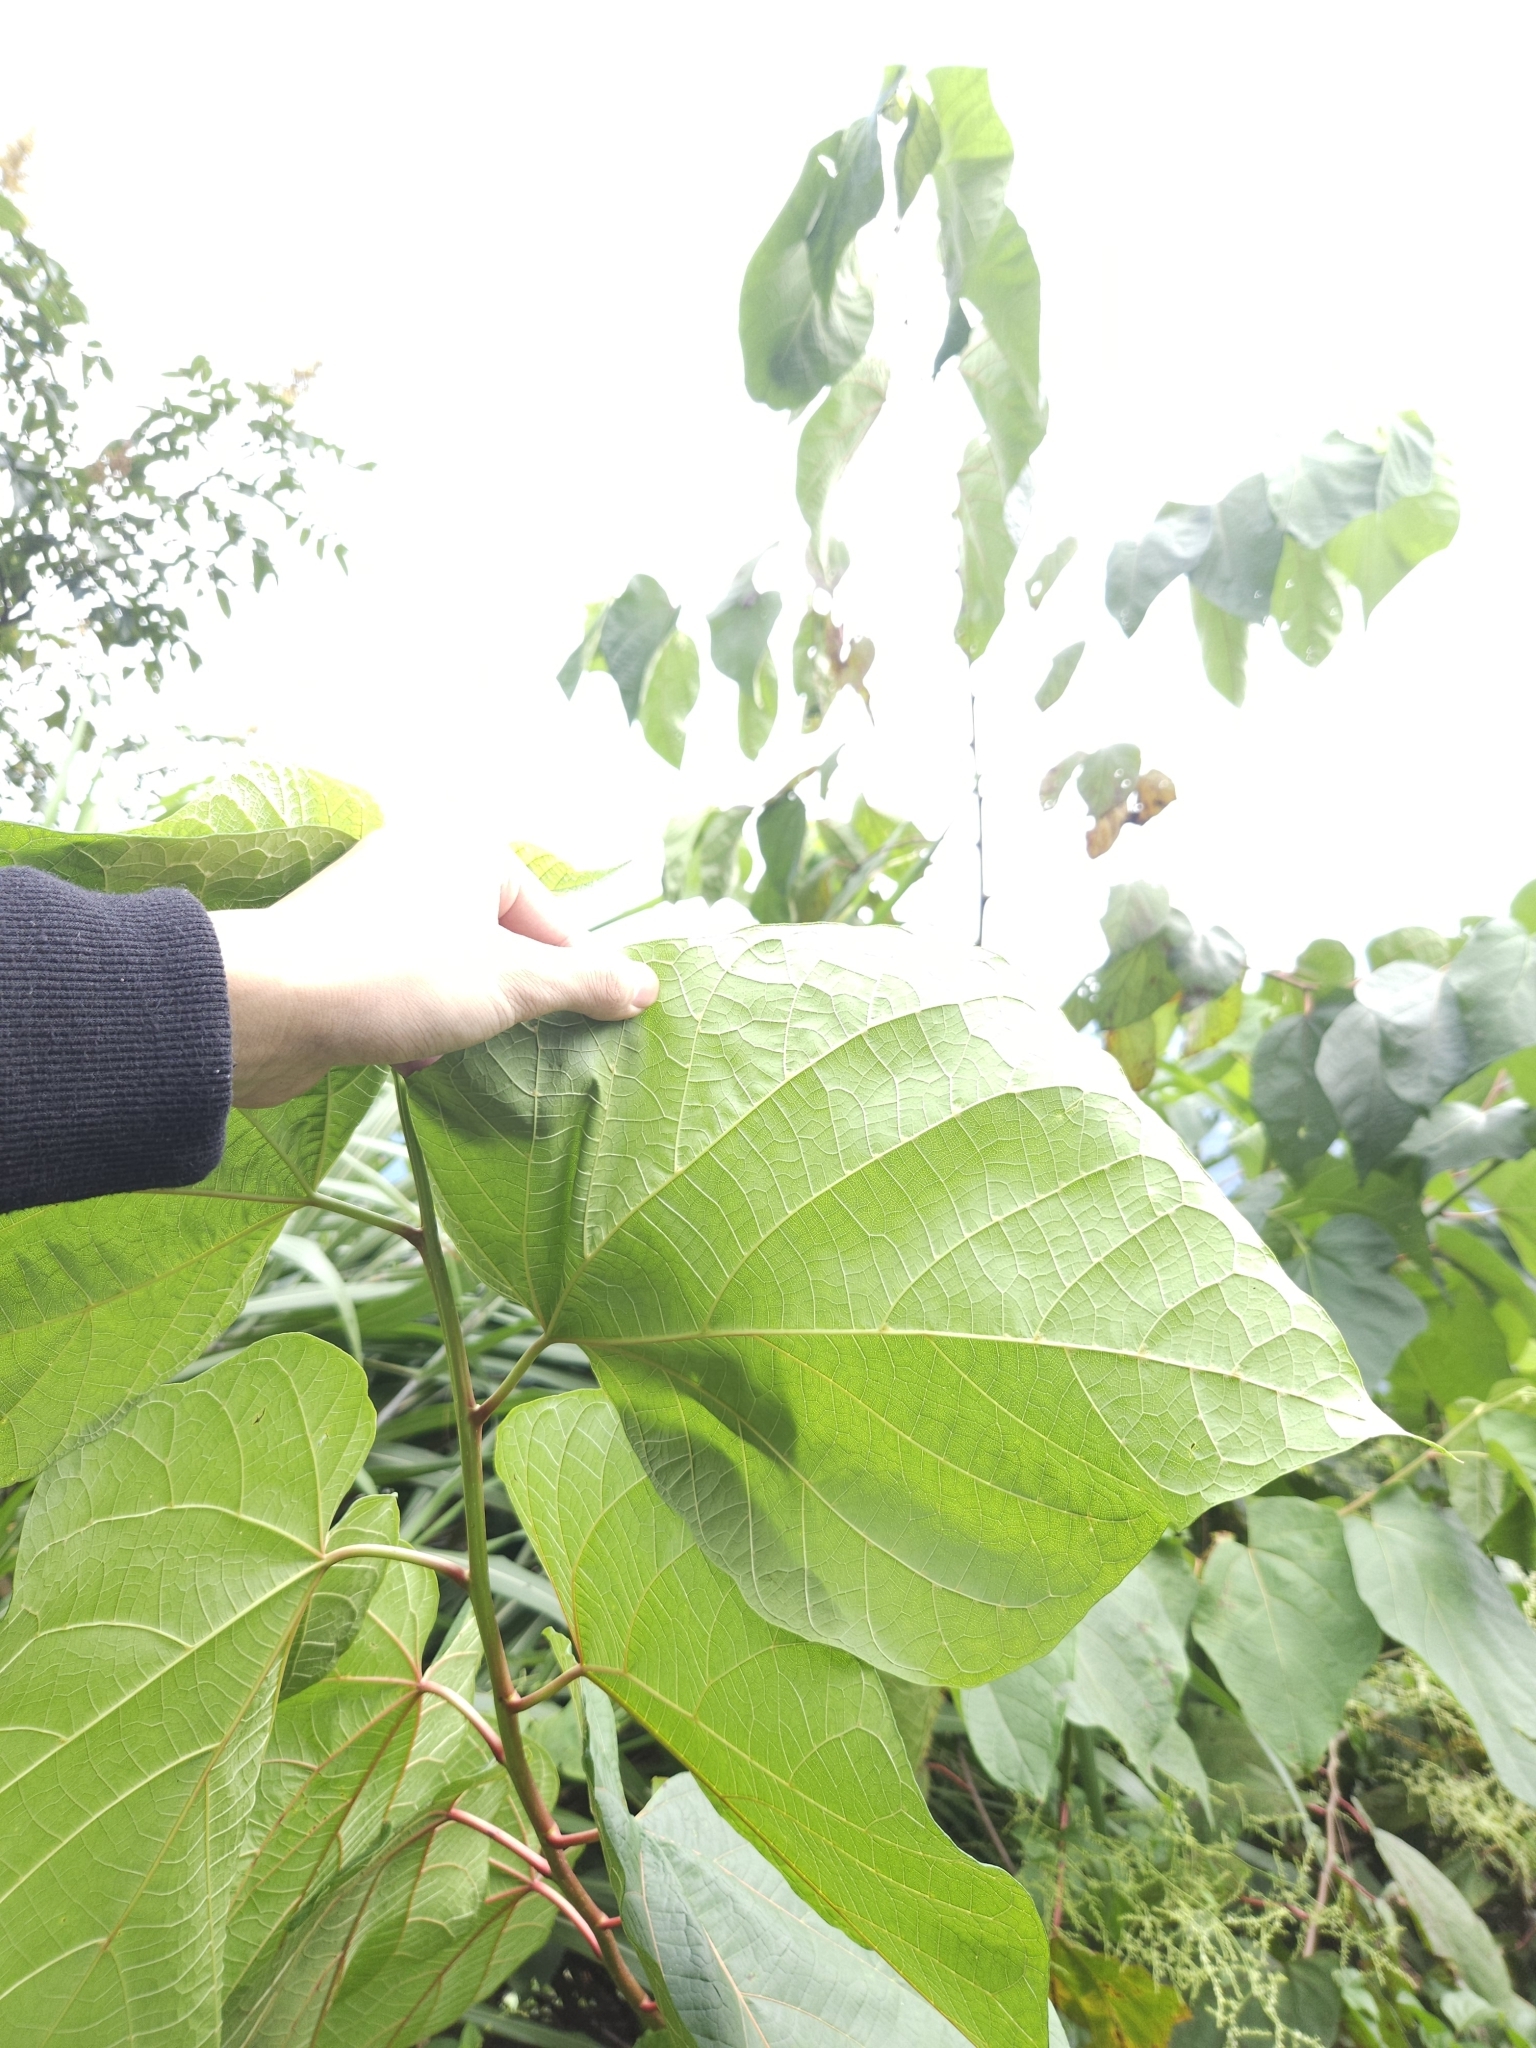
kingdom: Plantae
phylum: Tracheophyta
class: Magnoliopsida
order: Cornales
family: Cornaceae
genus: Alangium
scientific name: Alangium chinense
